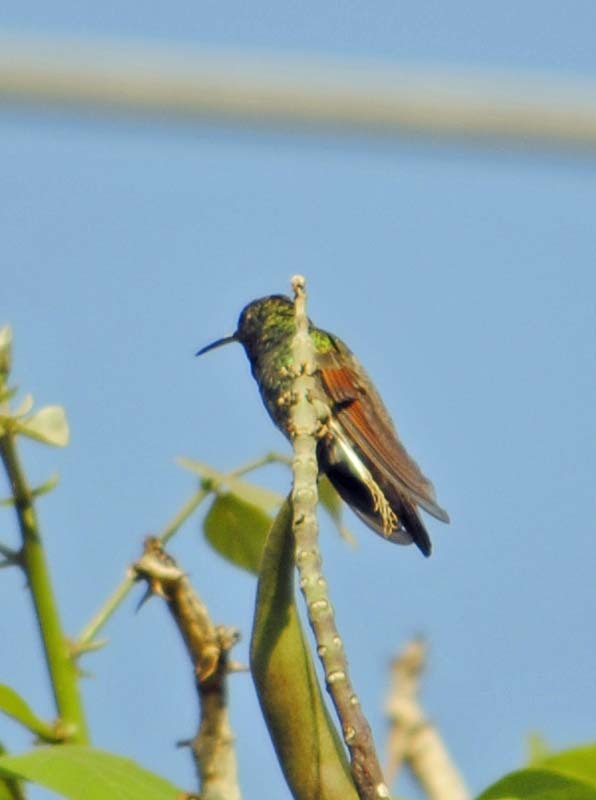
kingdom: Animalia
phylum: Chordata
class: Aves
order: Apodiformes
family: Trochilidae
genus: Saucerottia
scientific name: Saucerottia beryllina
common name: Berylline hummingbird
